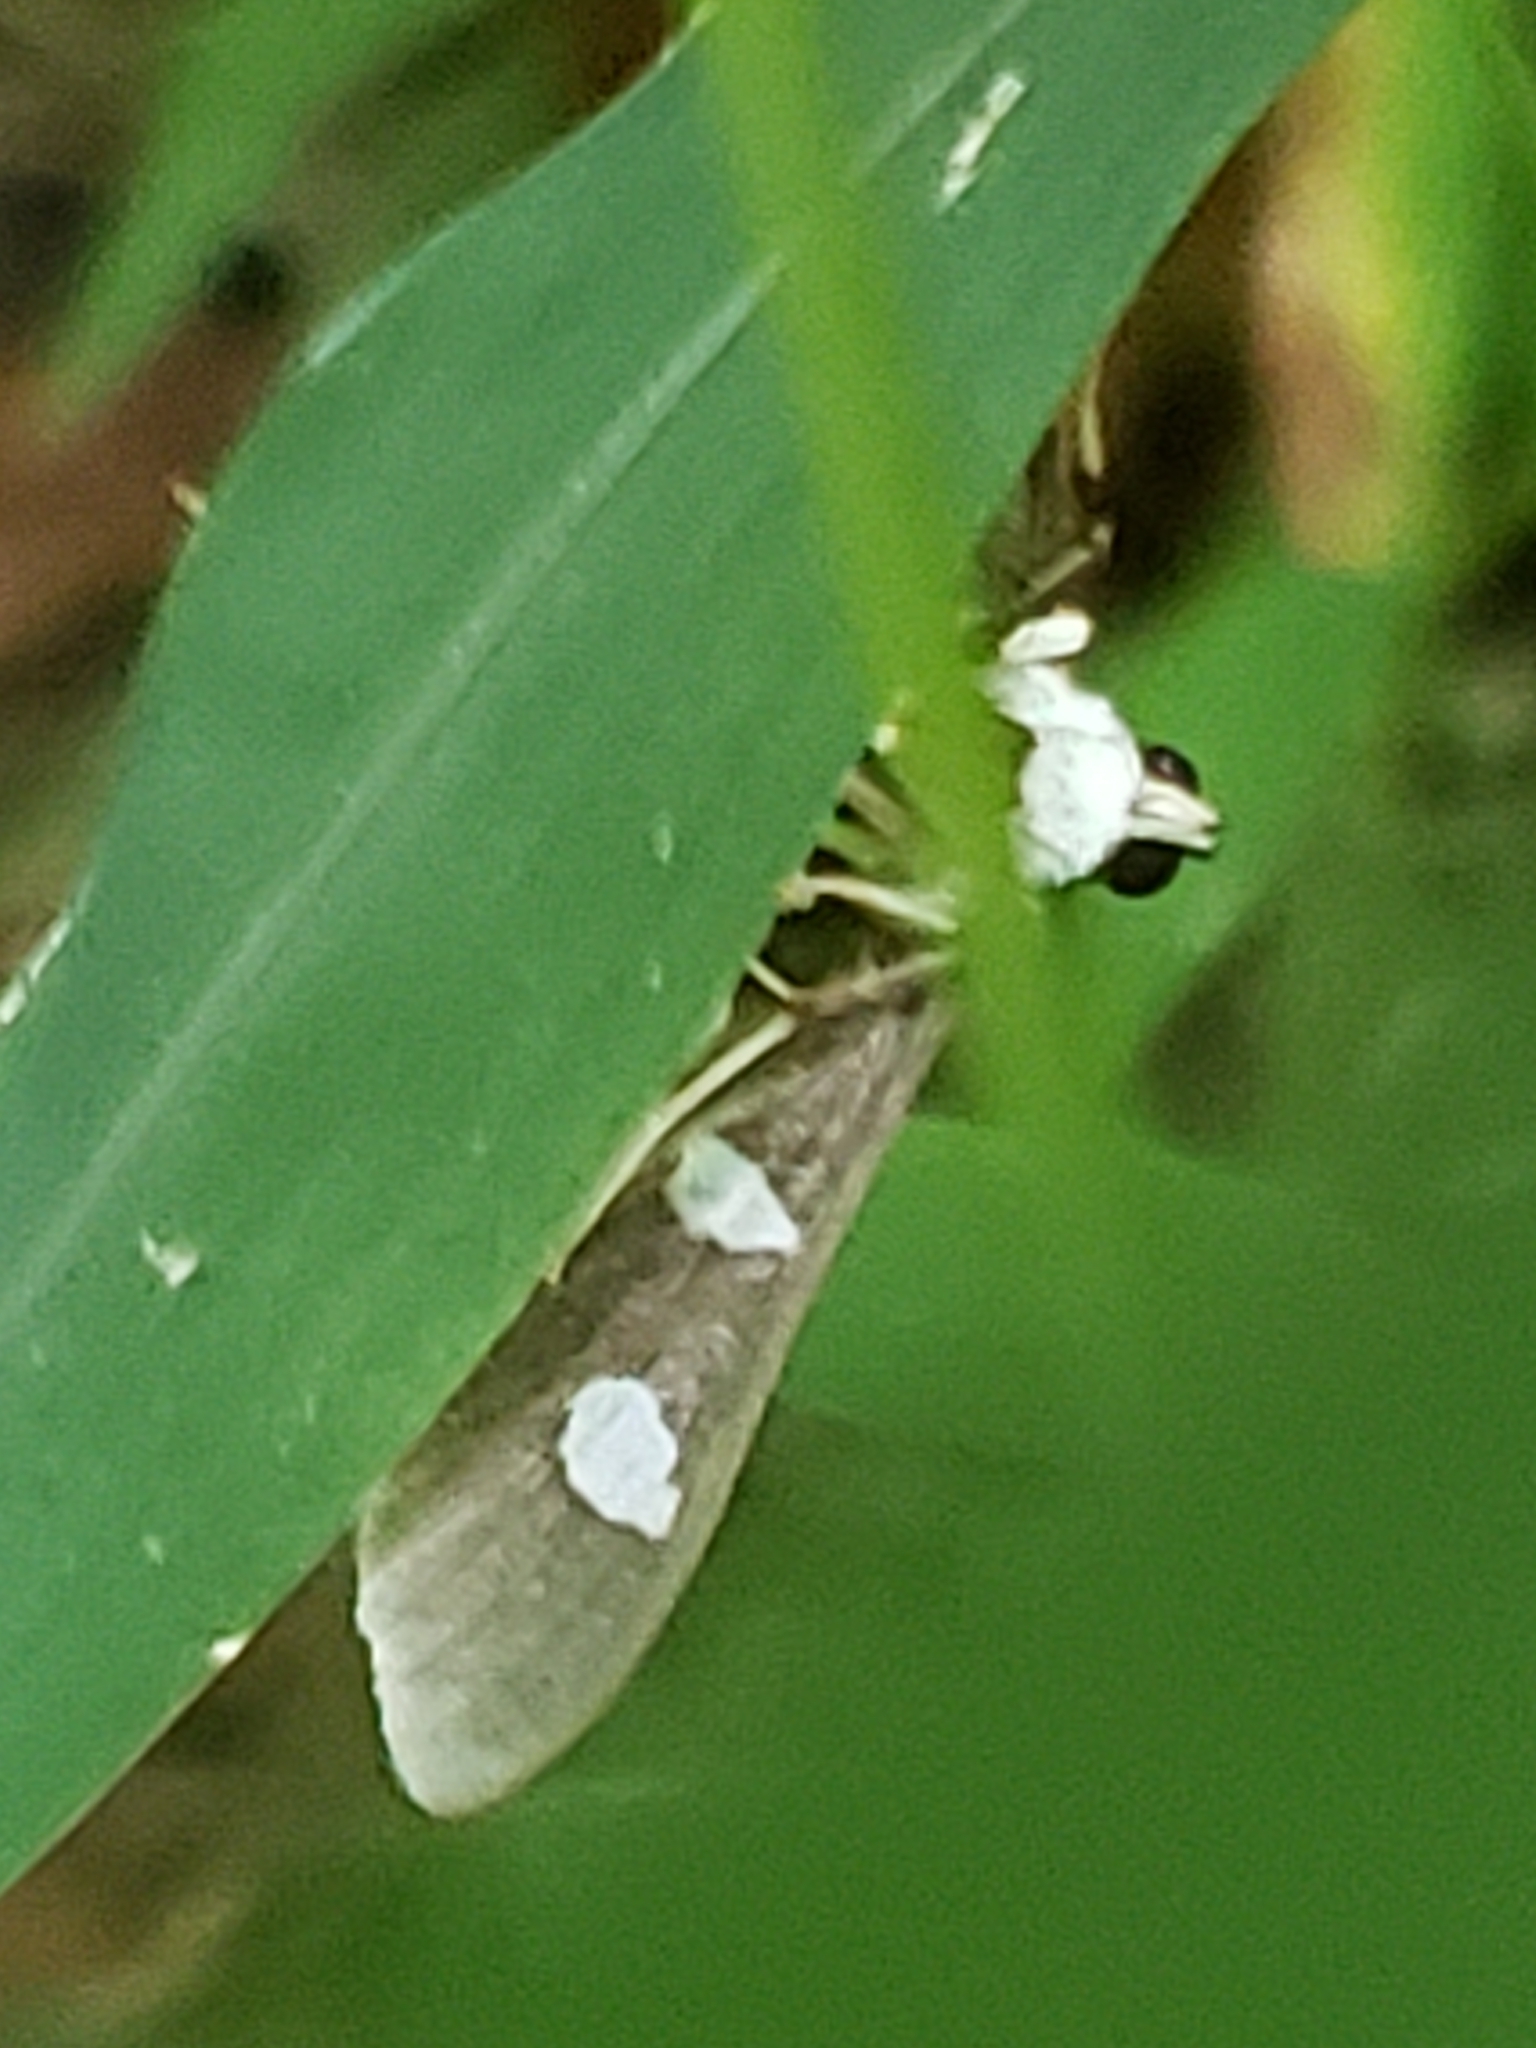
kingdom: Animalia
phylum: Arthropoda
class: Insecta
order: Lepidoptera
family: Crambidae
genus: Desmia
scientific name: Desmia
